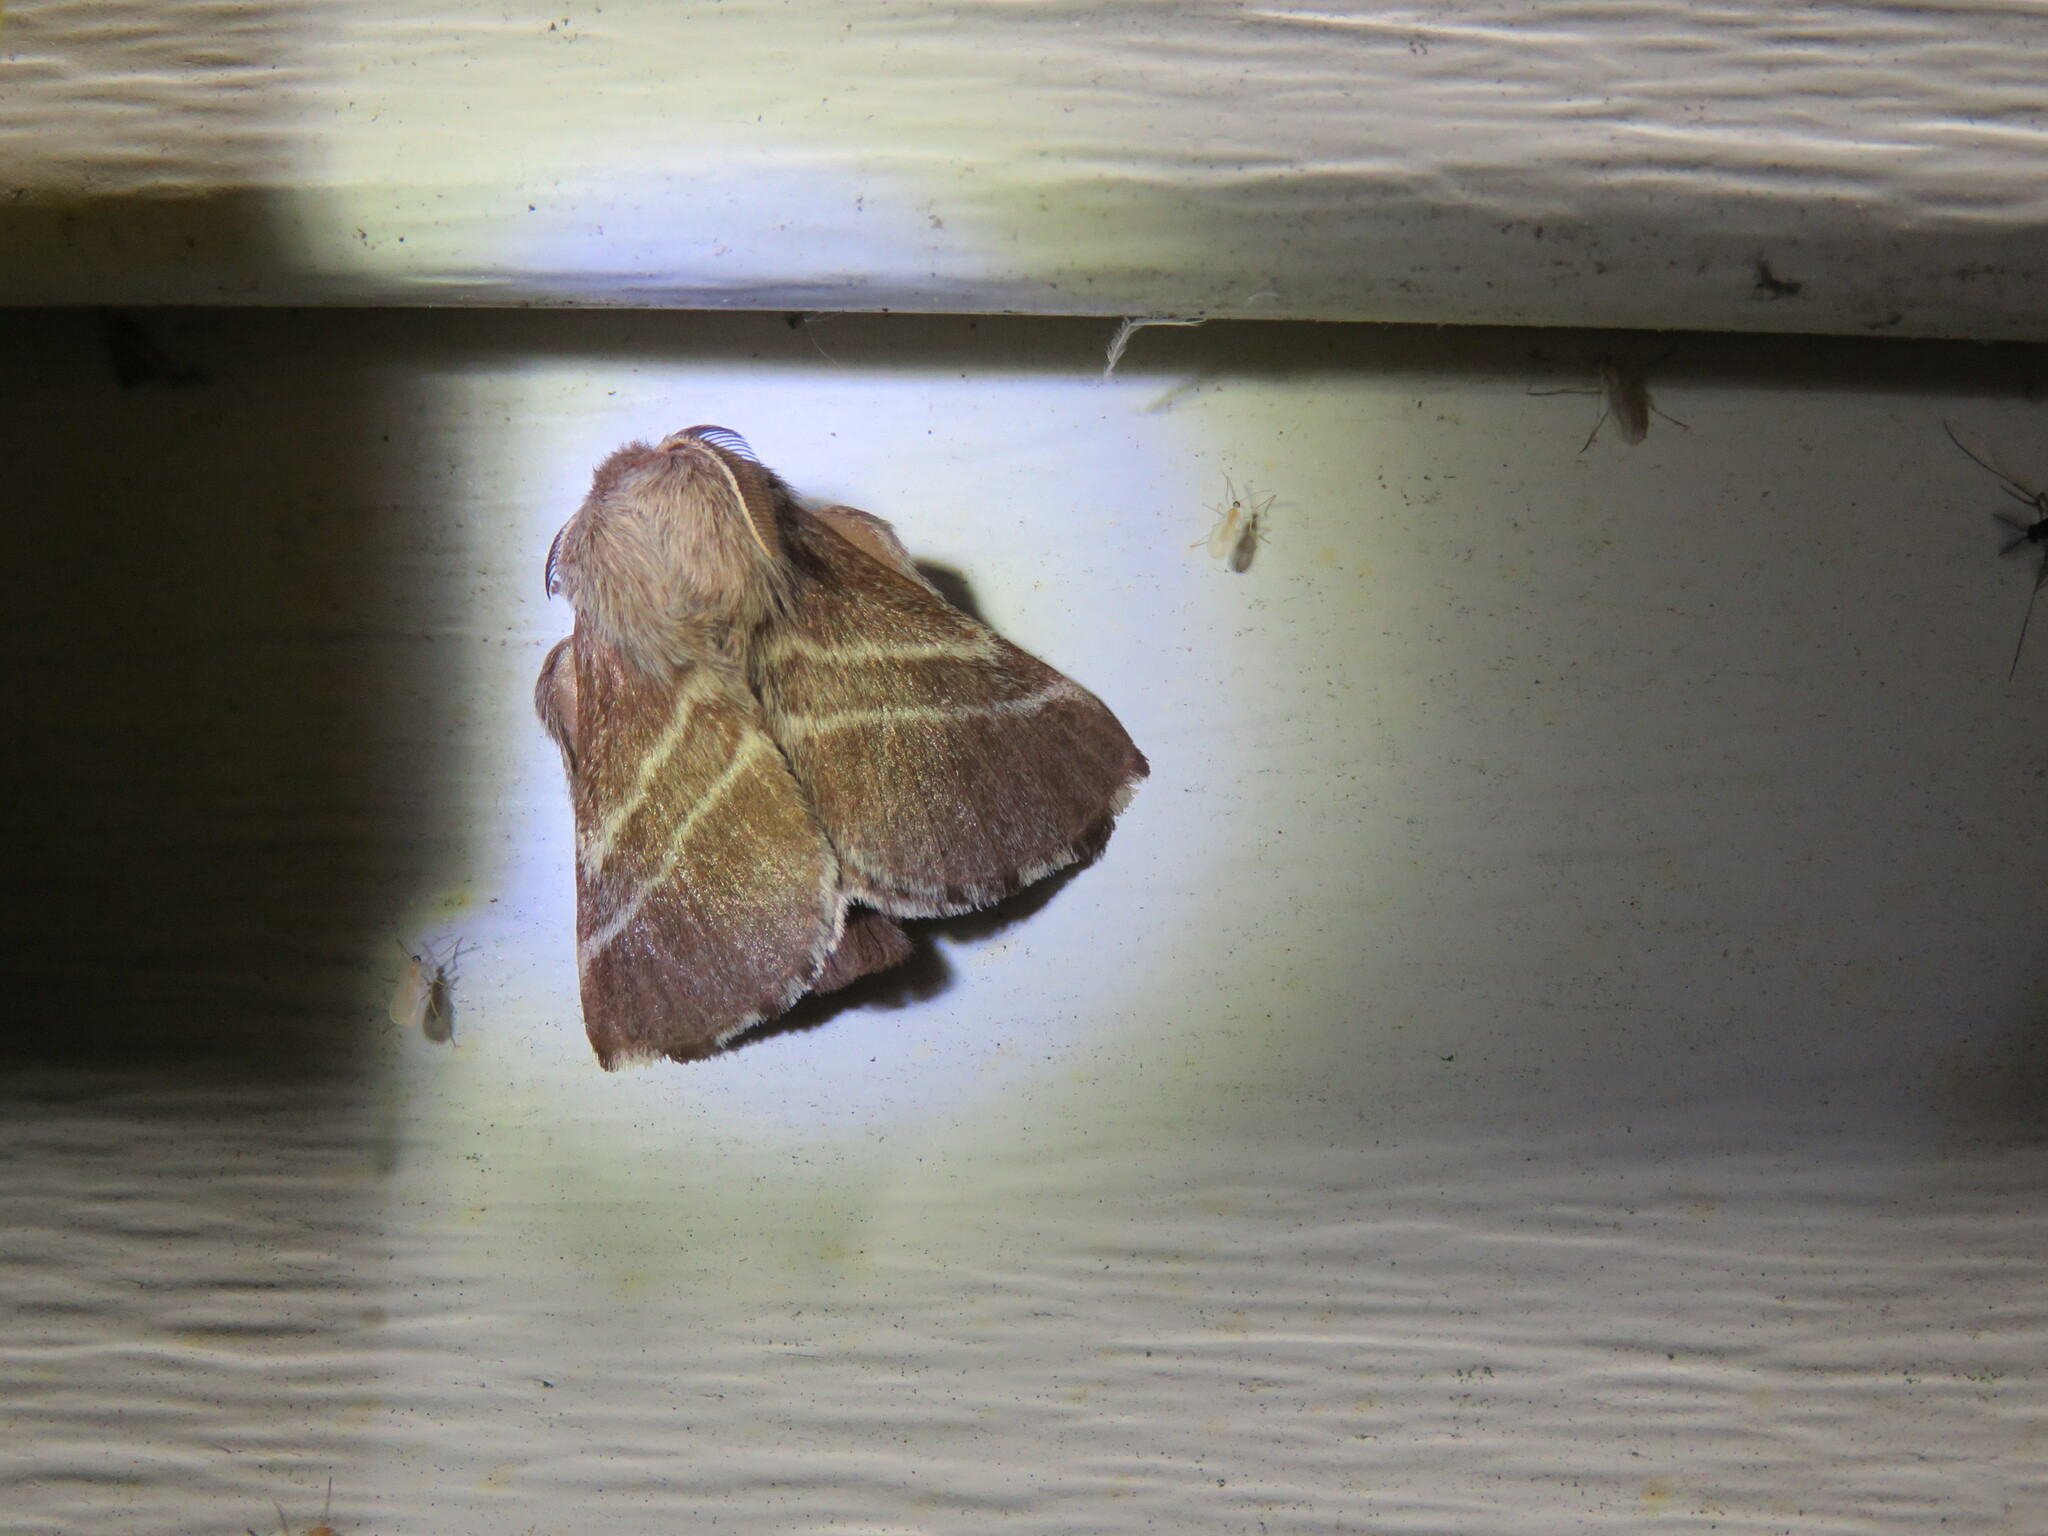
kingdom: Animalia
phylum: Arthropoda
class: Insecta
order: Lepidoptera
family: Lasiocampidae
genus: Malacosoma
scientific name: Malacosoma americana
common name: Eastern tent caterpillar moth
